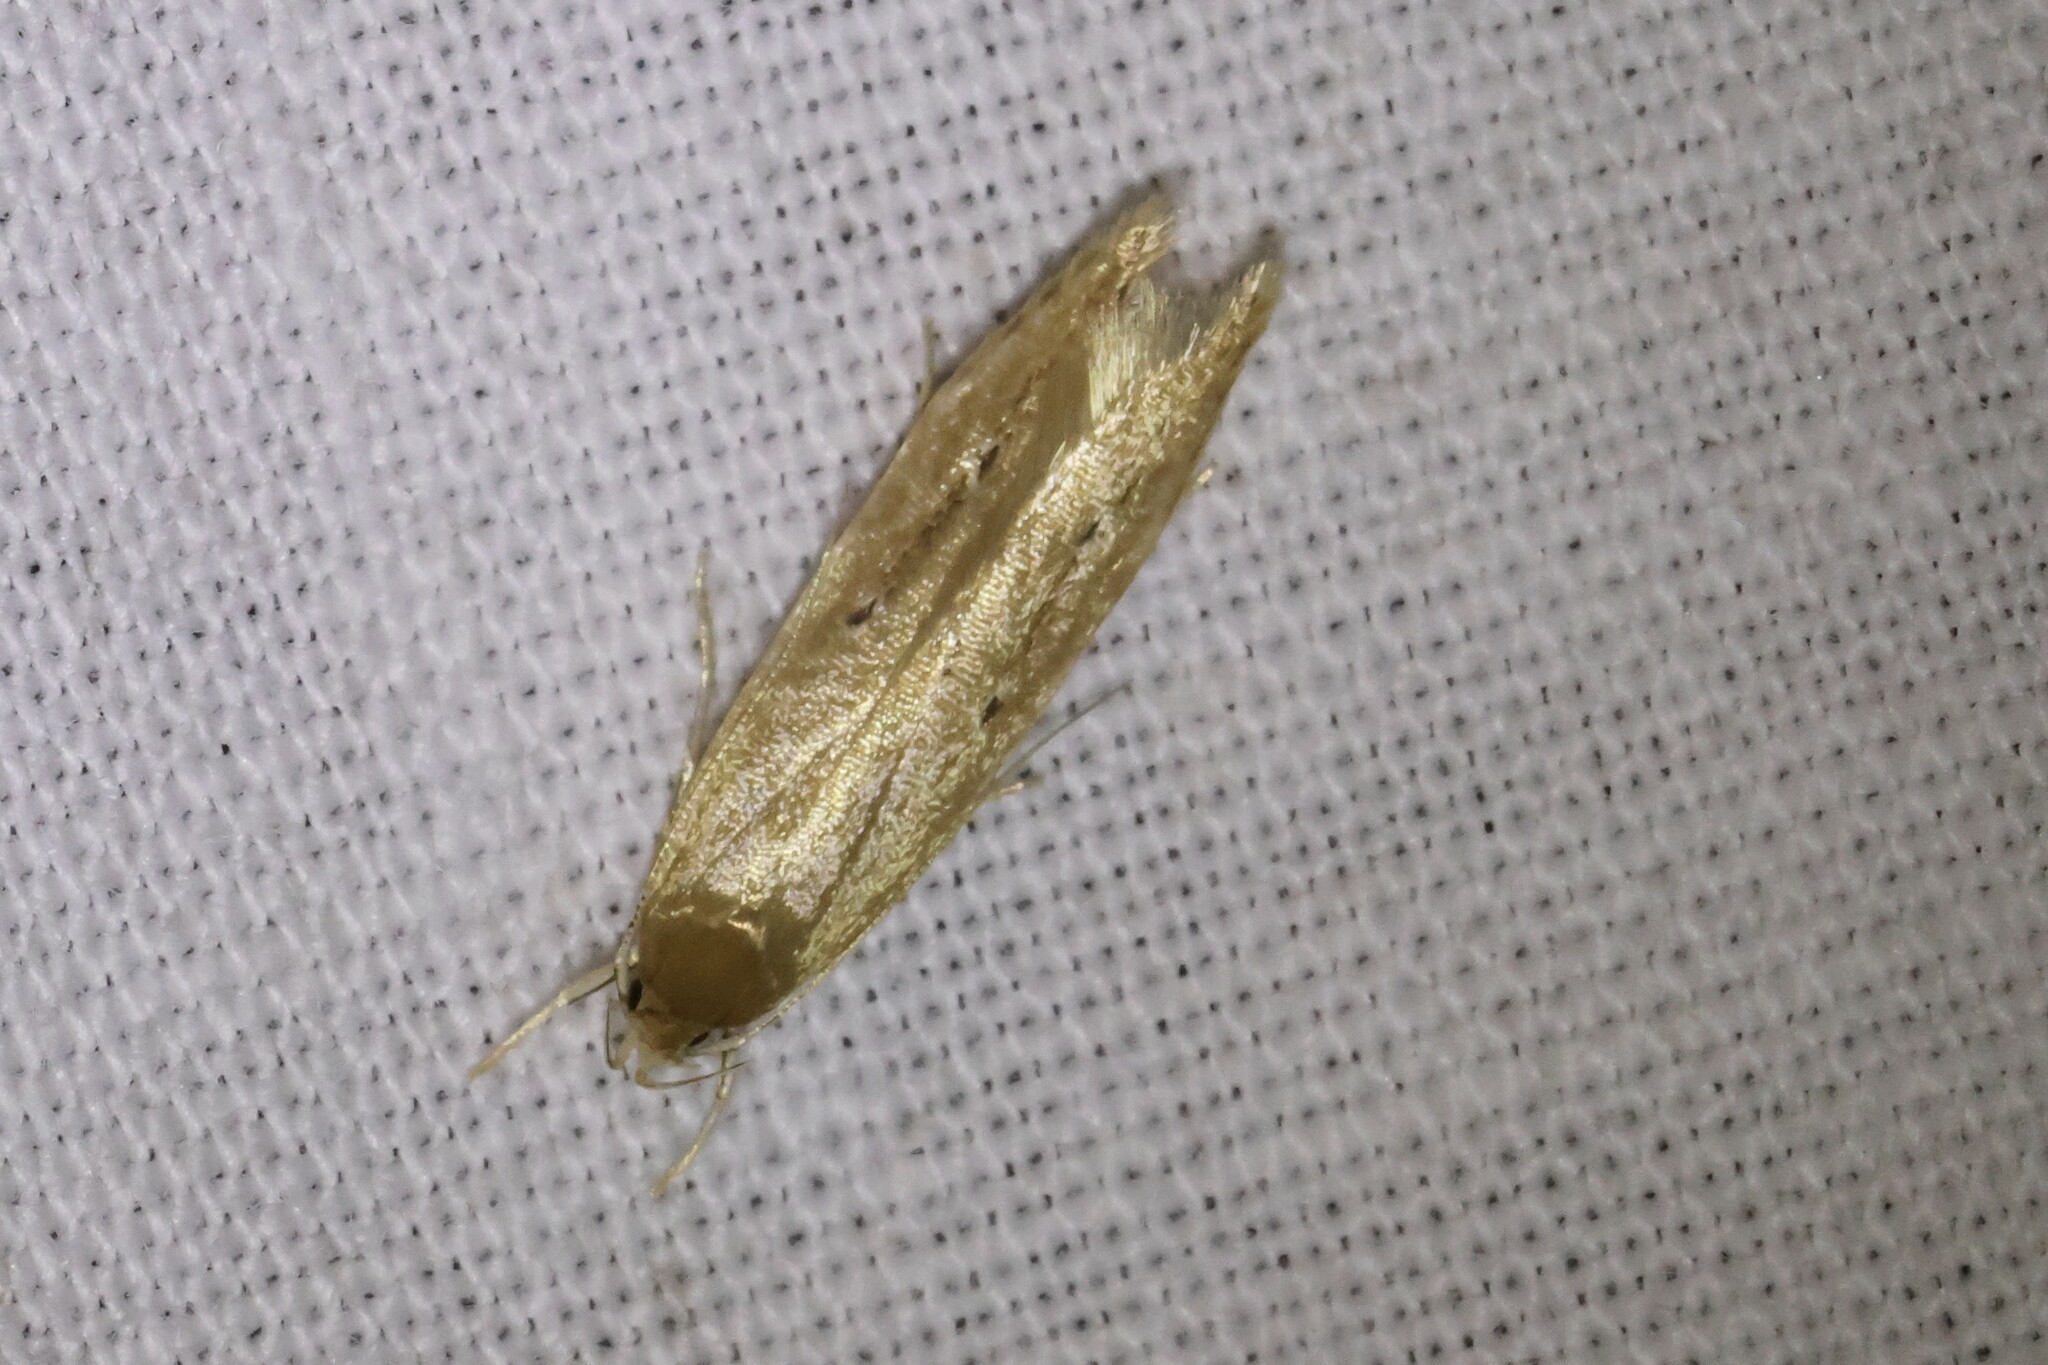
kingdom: Animalia
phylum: Arthropoda
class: Insecta
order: Lepidoptera
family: Cosmopterigidae
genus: Limnaecia
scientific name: Limnaecia phragmitella
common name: Bulrush cosmet
